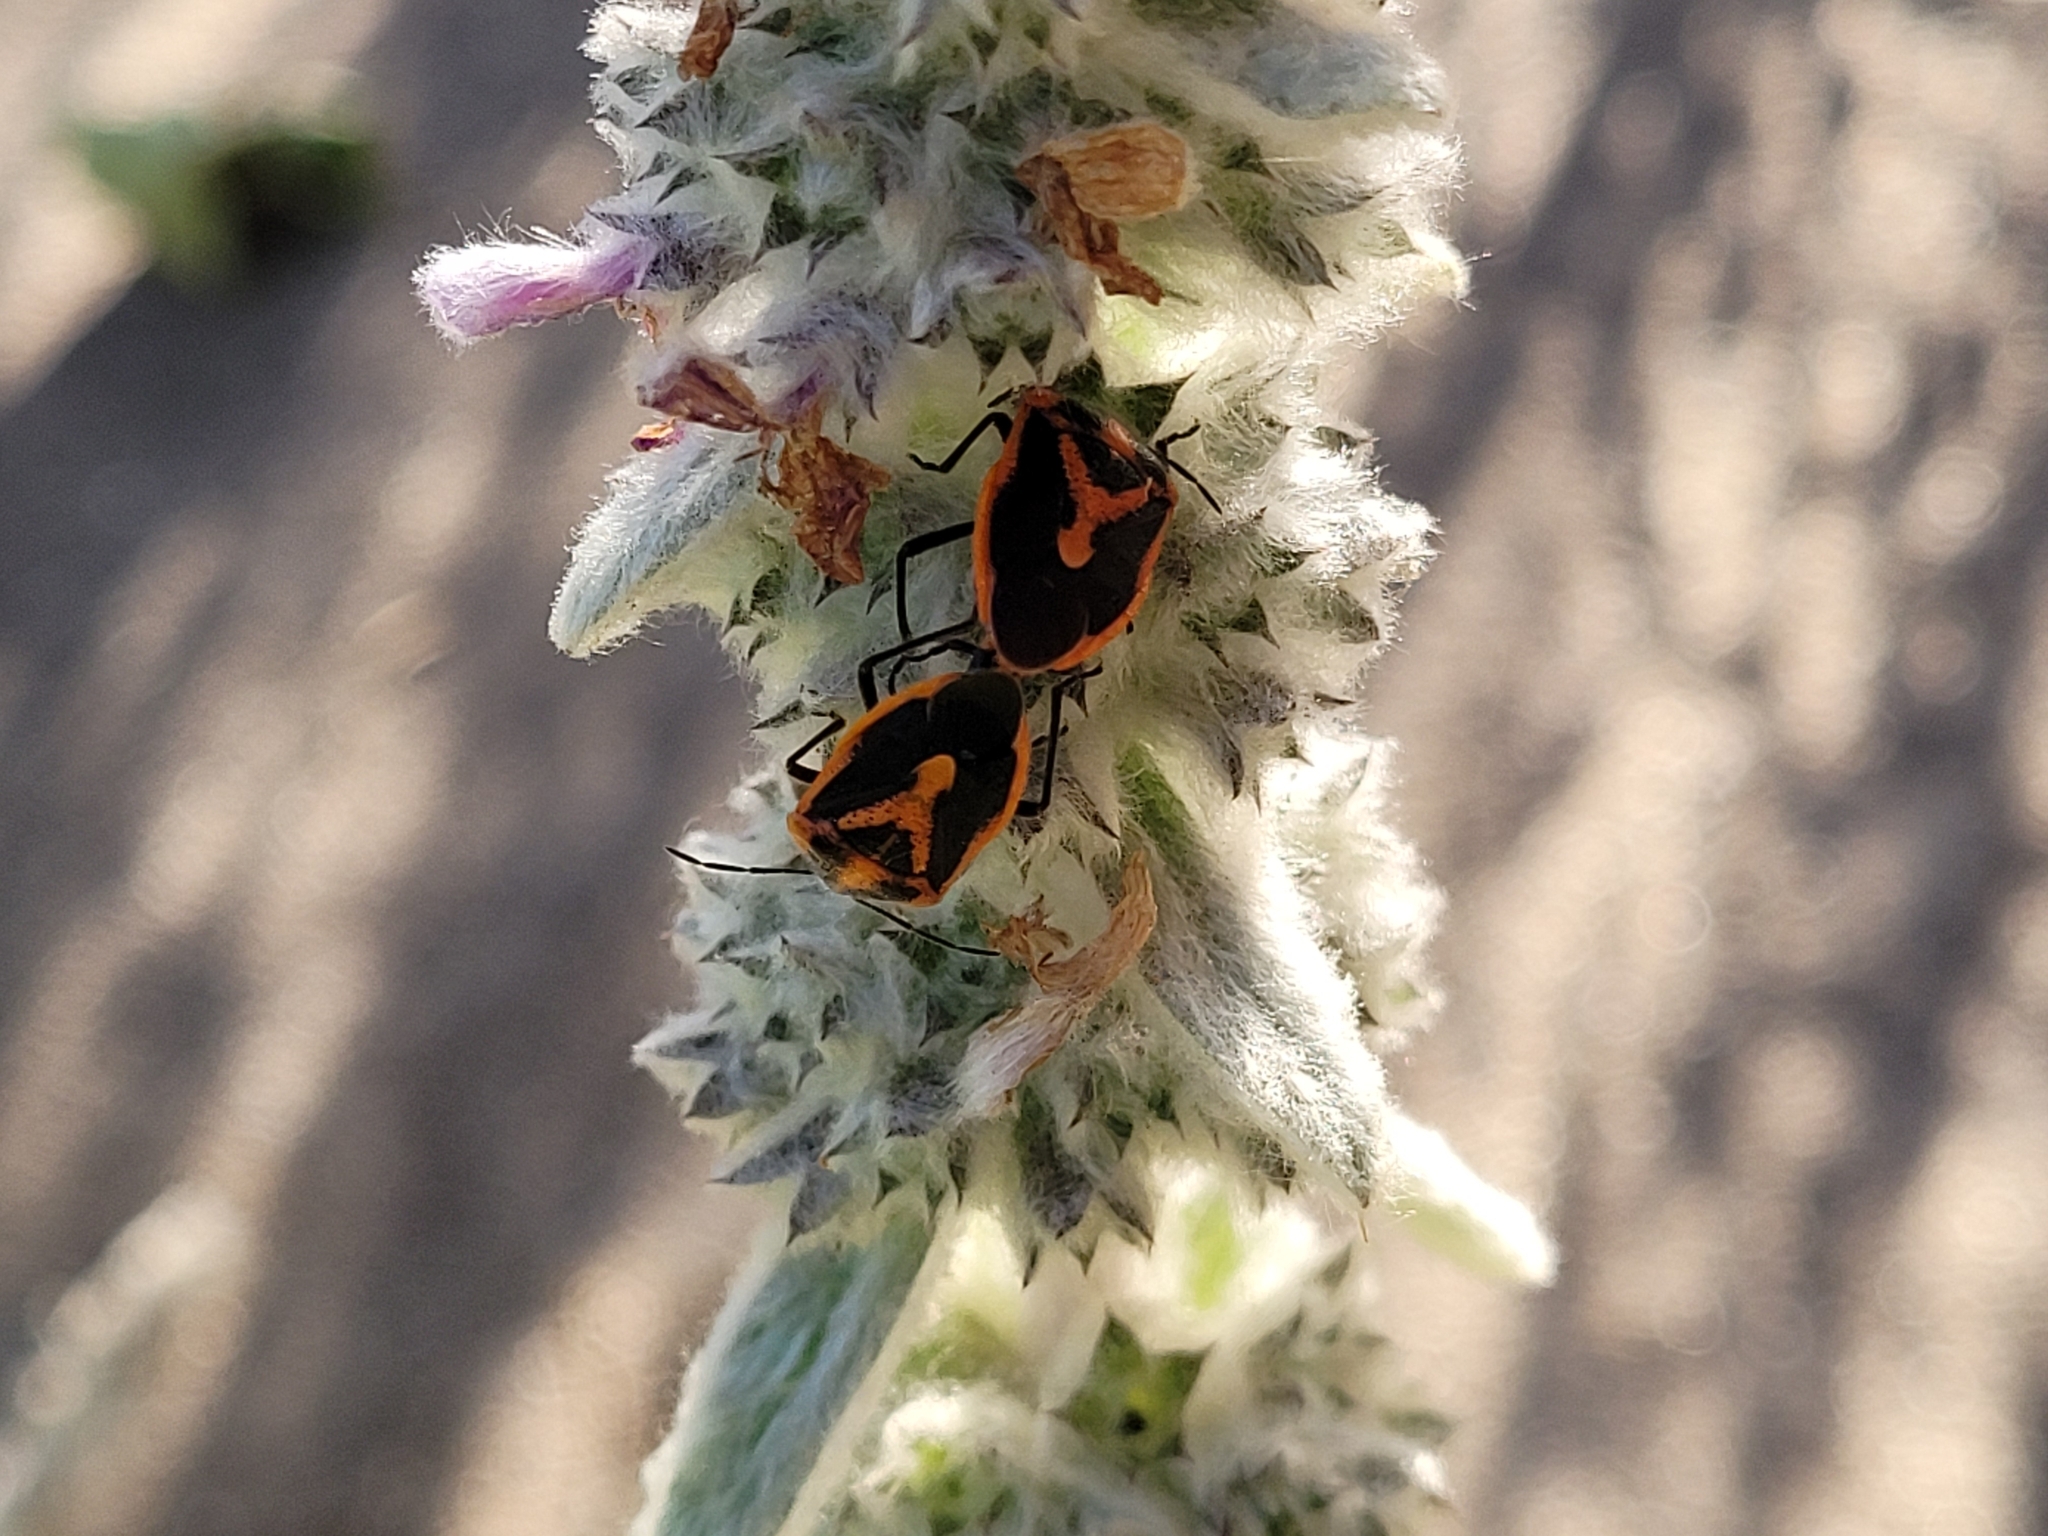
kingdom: Animalia
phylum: Arthropoda
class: Insecta
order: Hemiptera
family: Pentatomidae
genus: Agonoscelis
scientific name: Agonoscelis rutila
